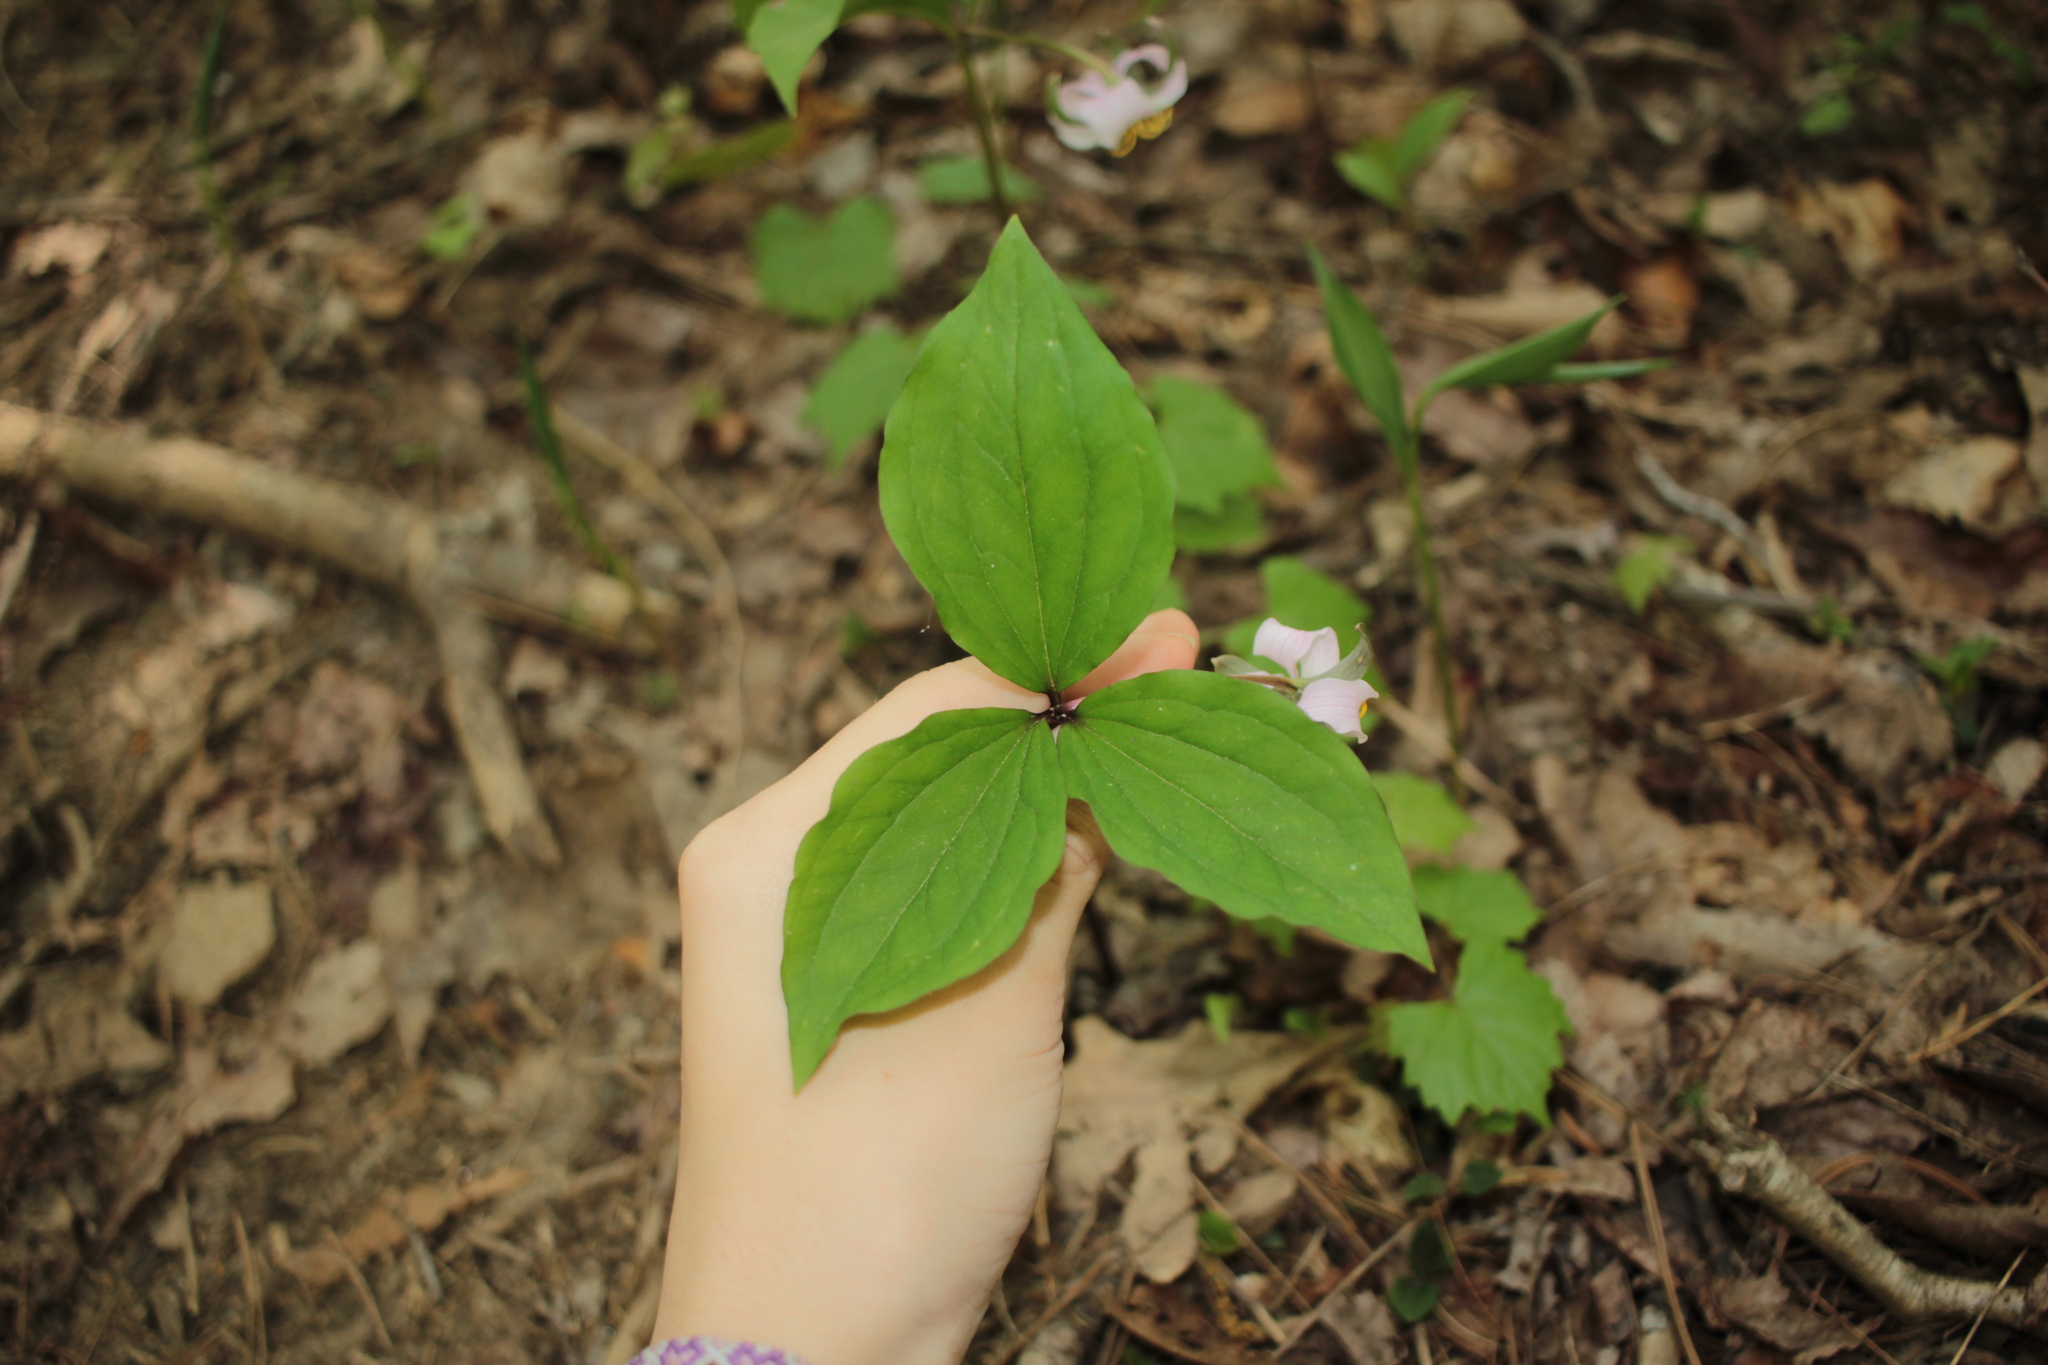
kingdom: Plantae
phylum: Tracheophyta
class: Liliopsida
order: Liliales
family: Melanthiaceae
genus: Trillium
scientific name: Trillium catesbaei
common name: Bashful trillium
